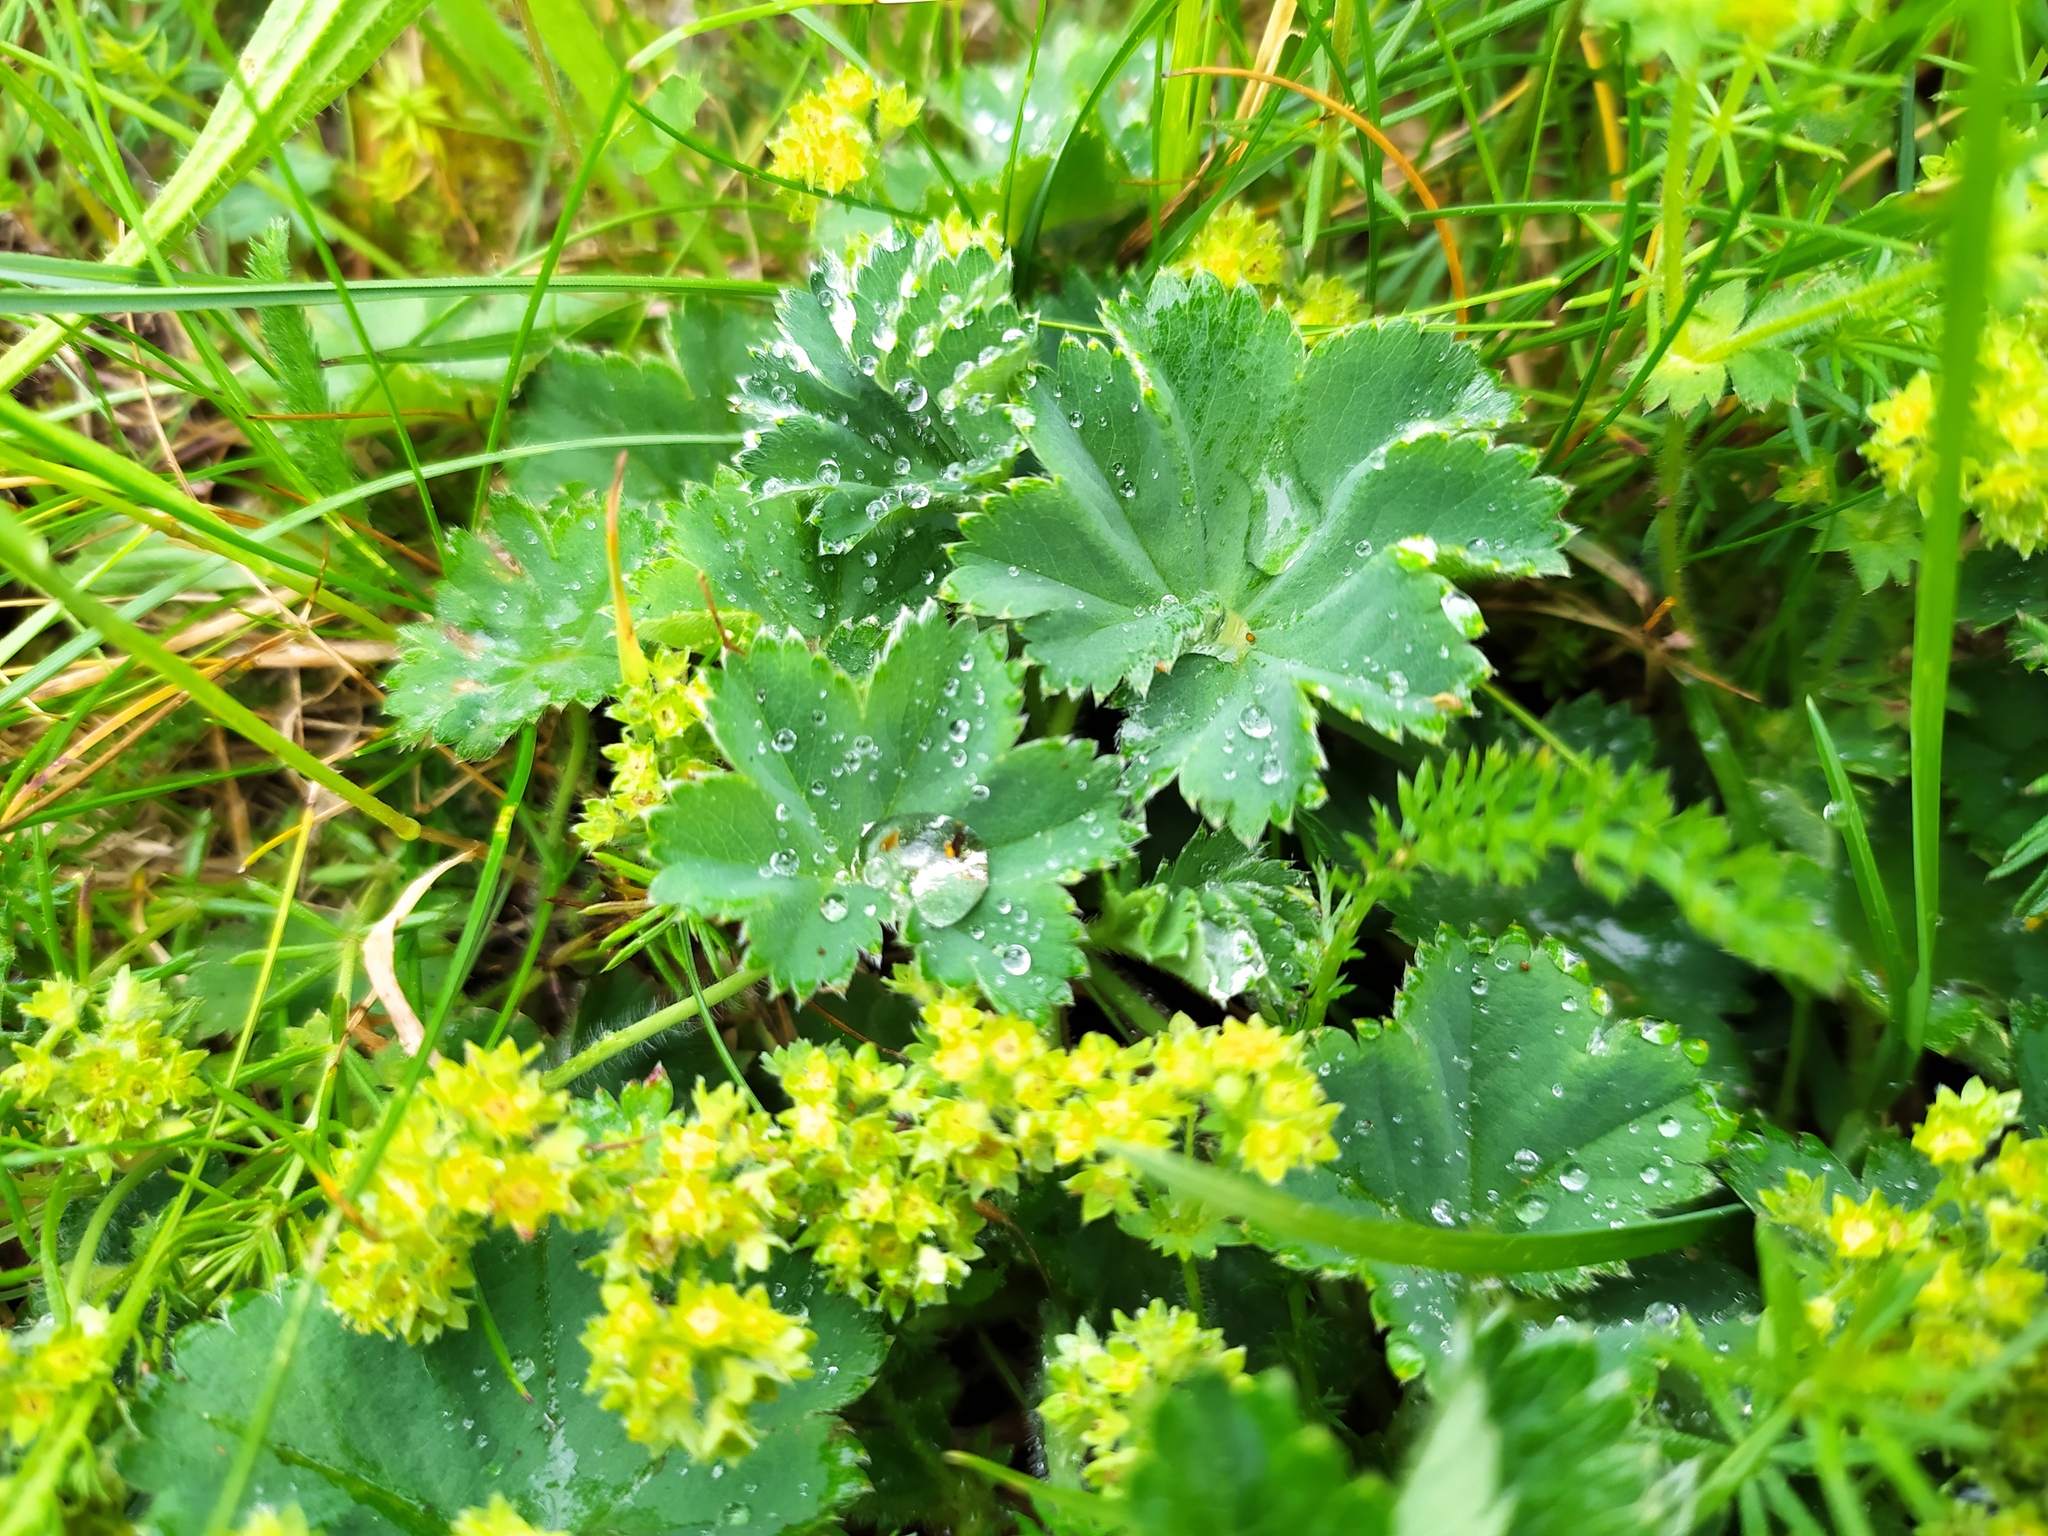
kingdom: Plantae
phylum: Tracheophyta
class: Magnoliopsida
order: Rosales
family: Rosaceae
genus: Alchemilla
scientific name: Alchemilla glaucescens
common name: Silky lady's mantle
